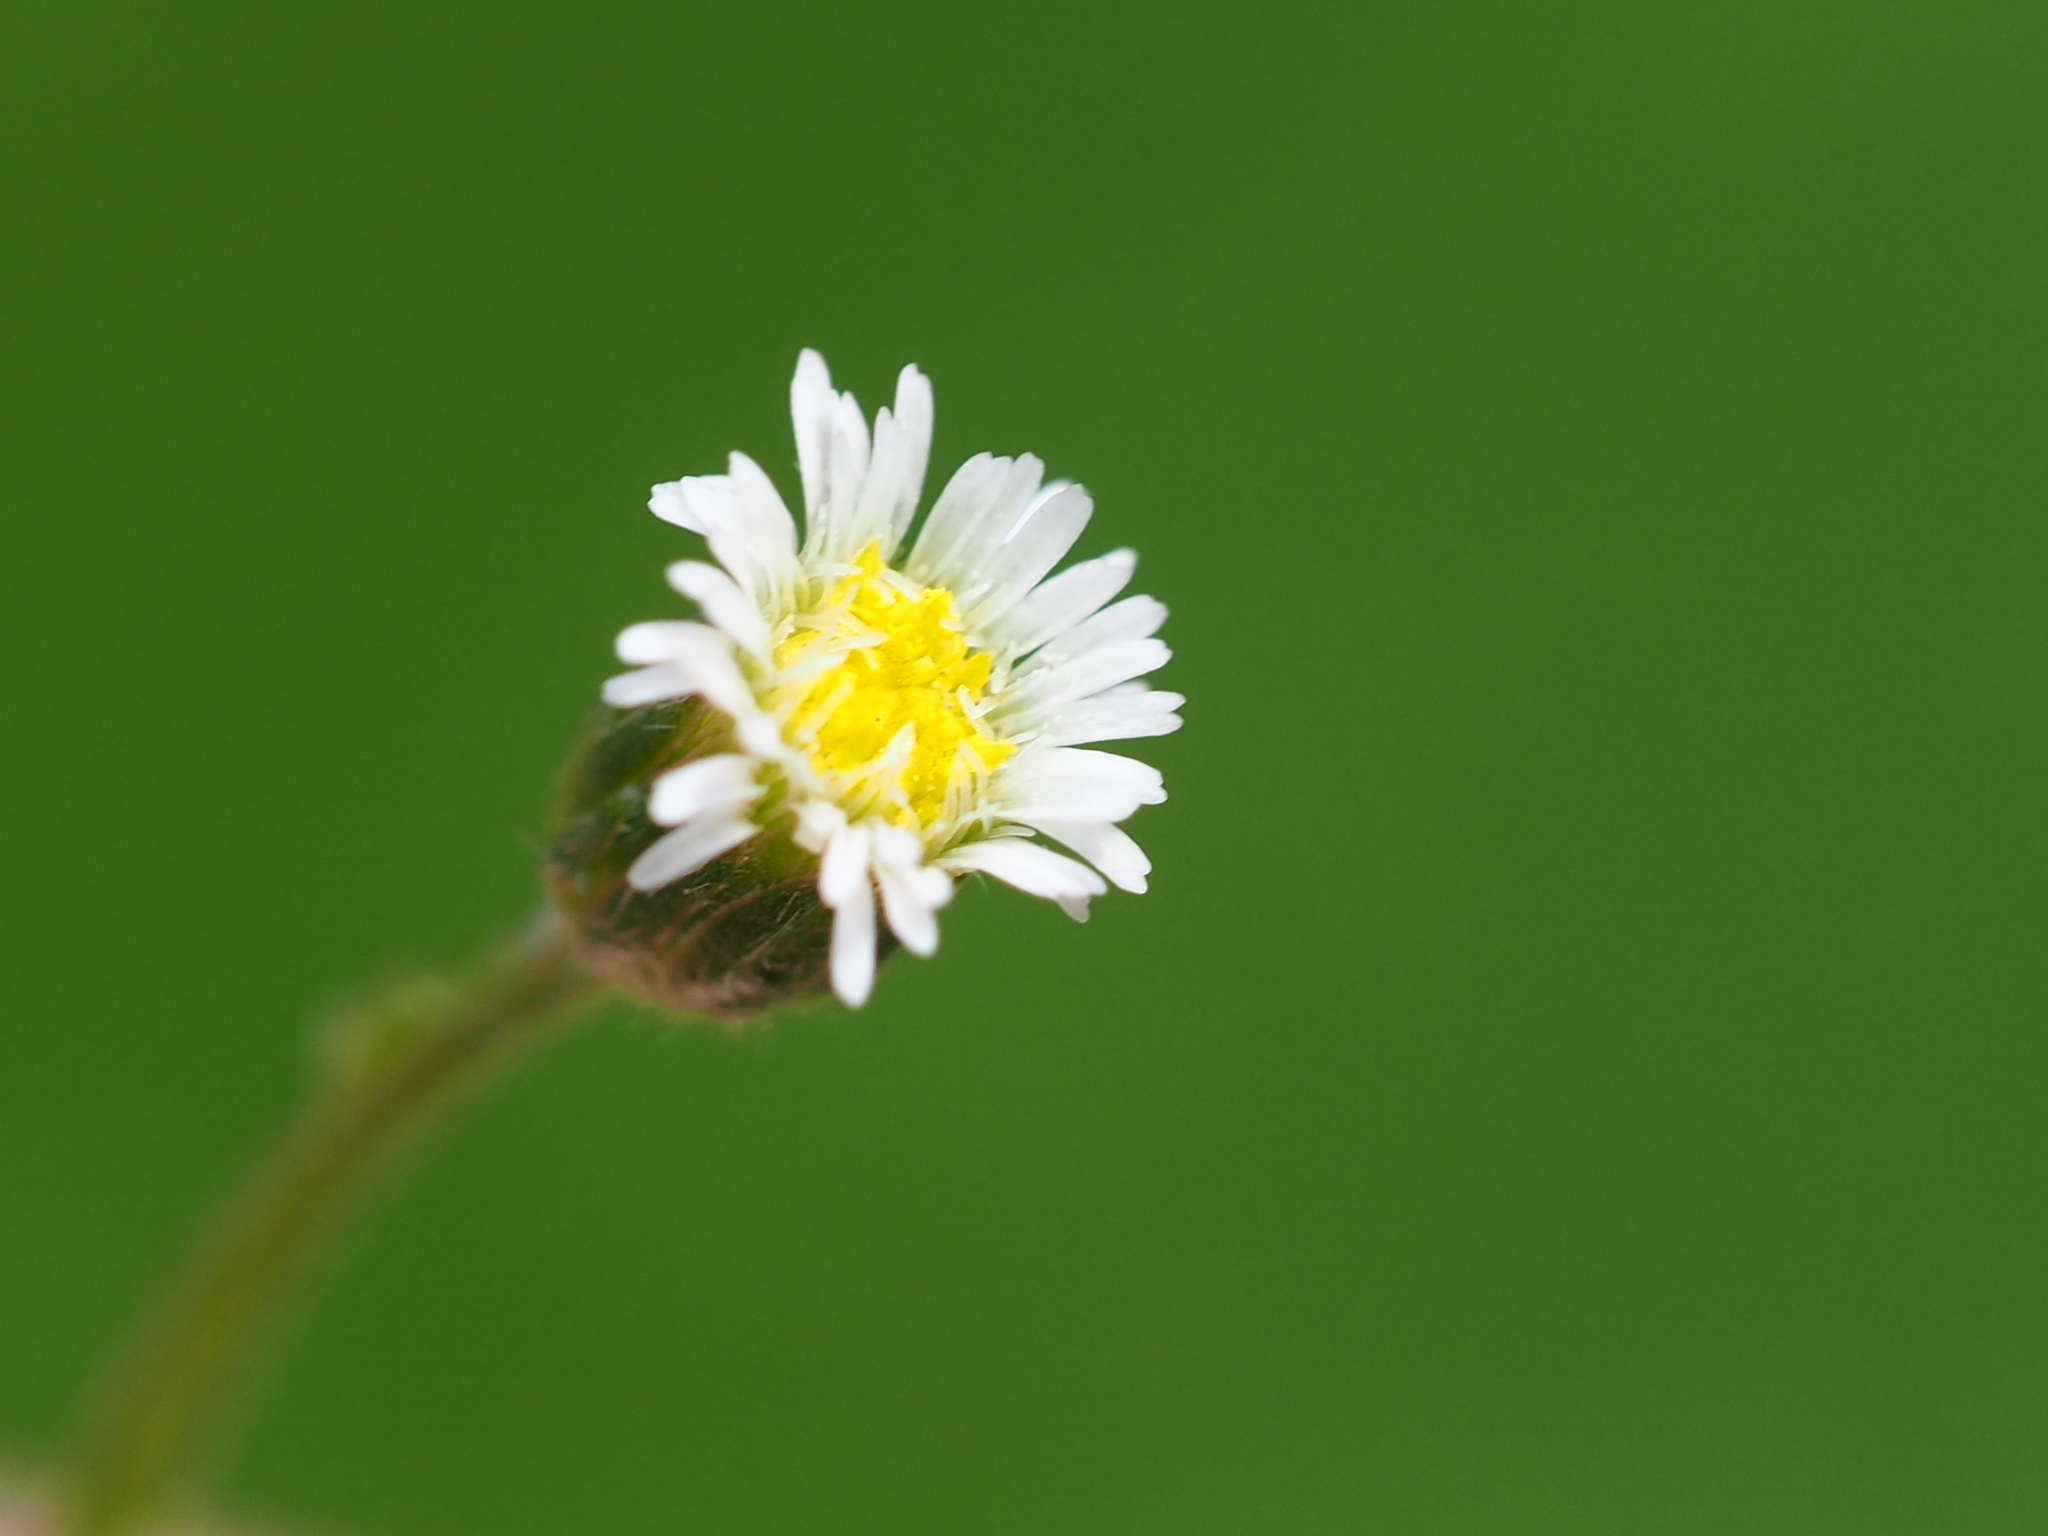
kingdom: Plantae
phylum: Tracheophyta
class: Magnoliopsida
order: Asterales
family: Asteraceae
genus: Erigeron
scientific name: Erigeron bellioides
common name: Bellorita
